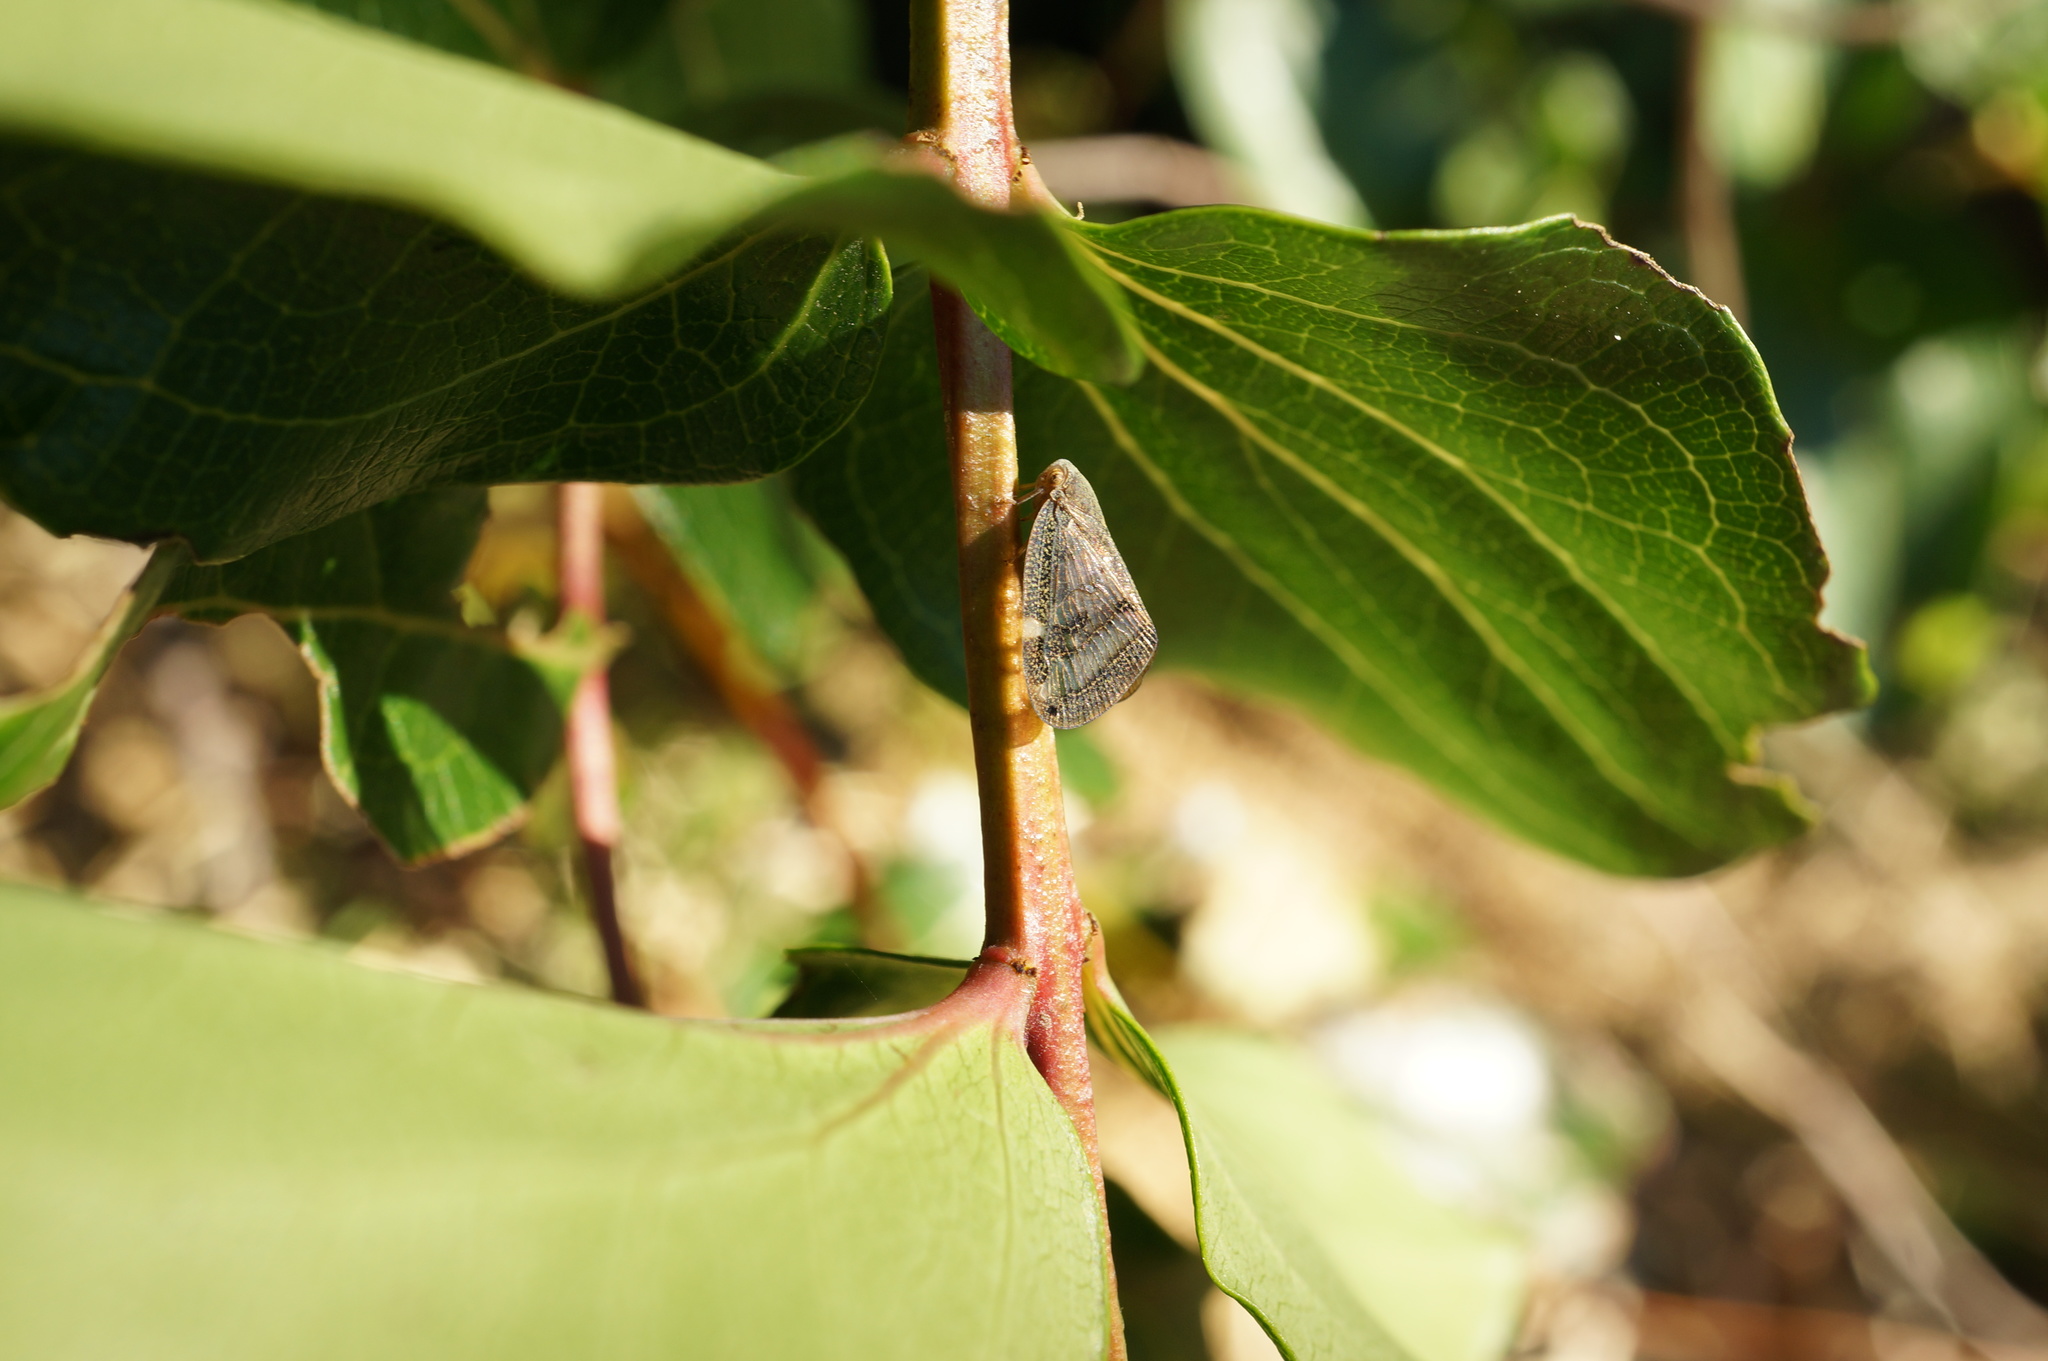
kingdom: Animalia
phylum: Arthropoda
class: Insecta
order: Hemiptera
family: Ricaniidae
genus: Scolypopa
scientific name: Scolypopa australis
